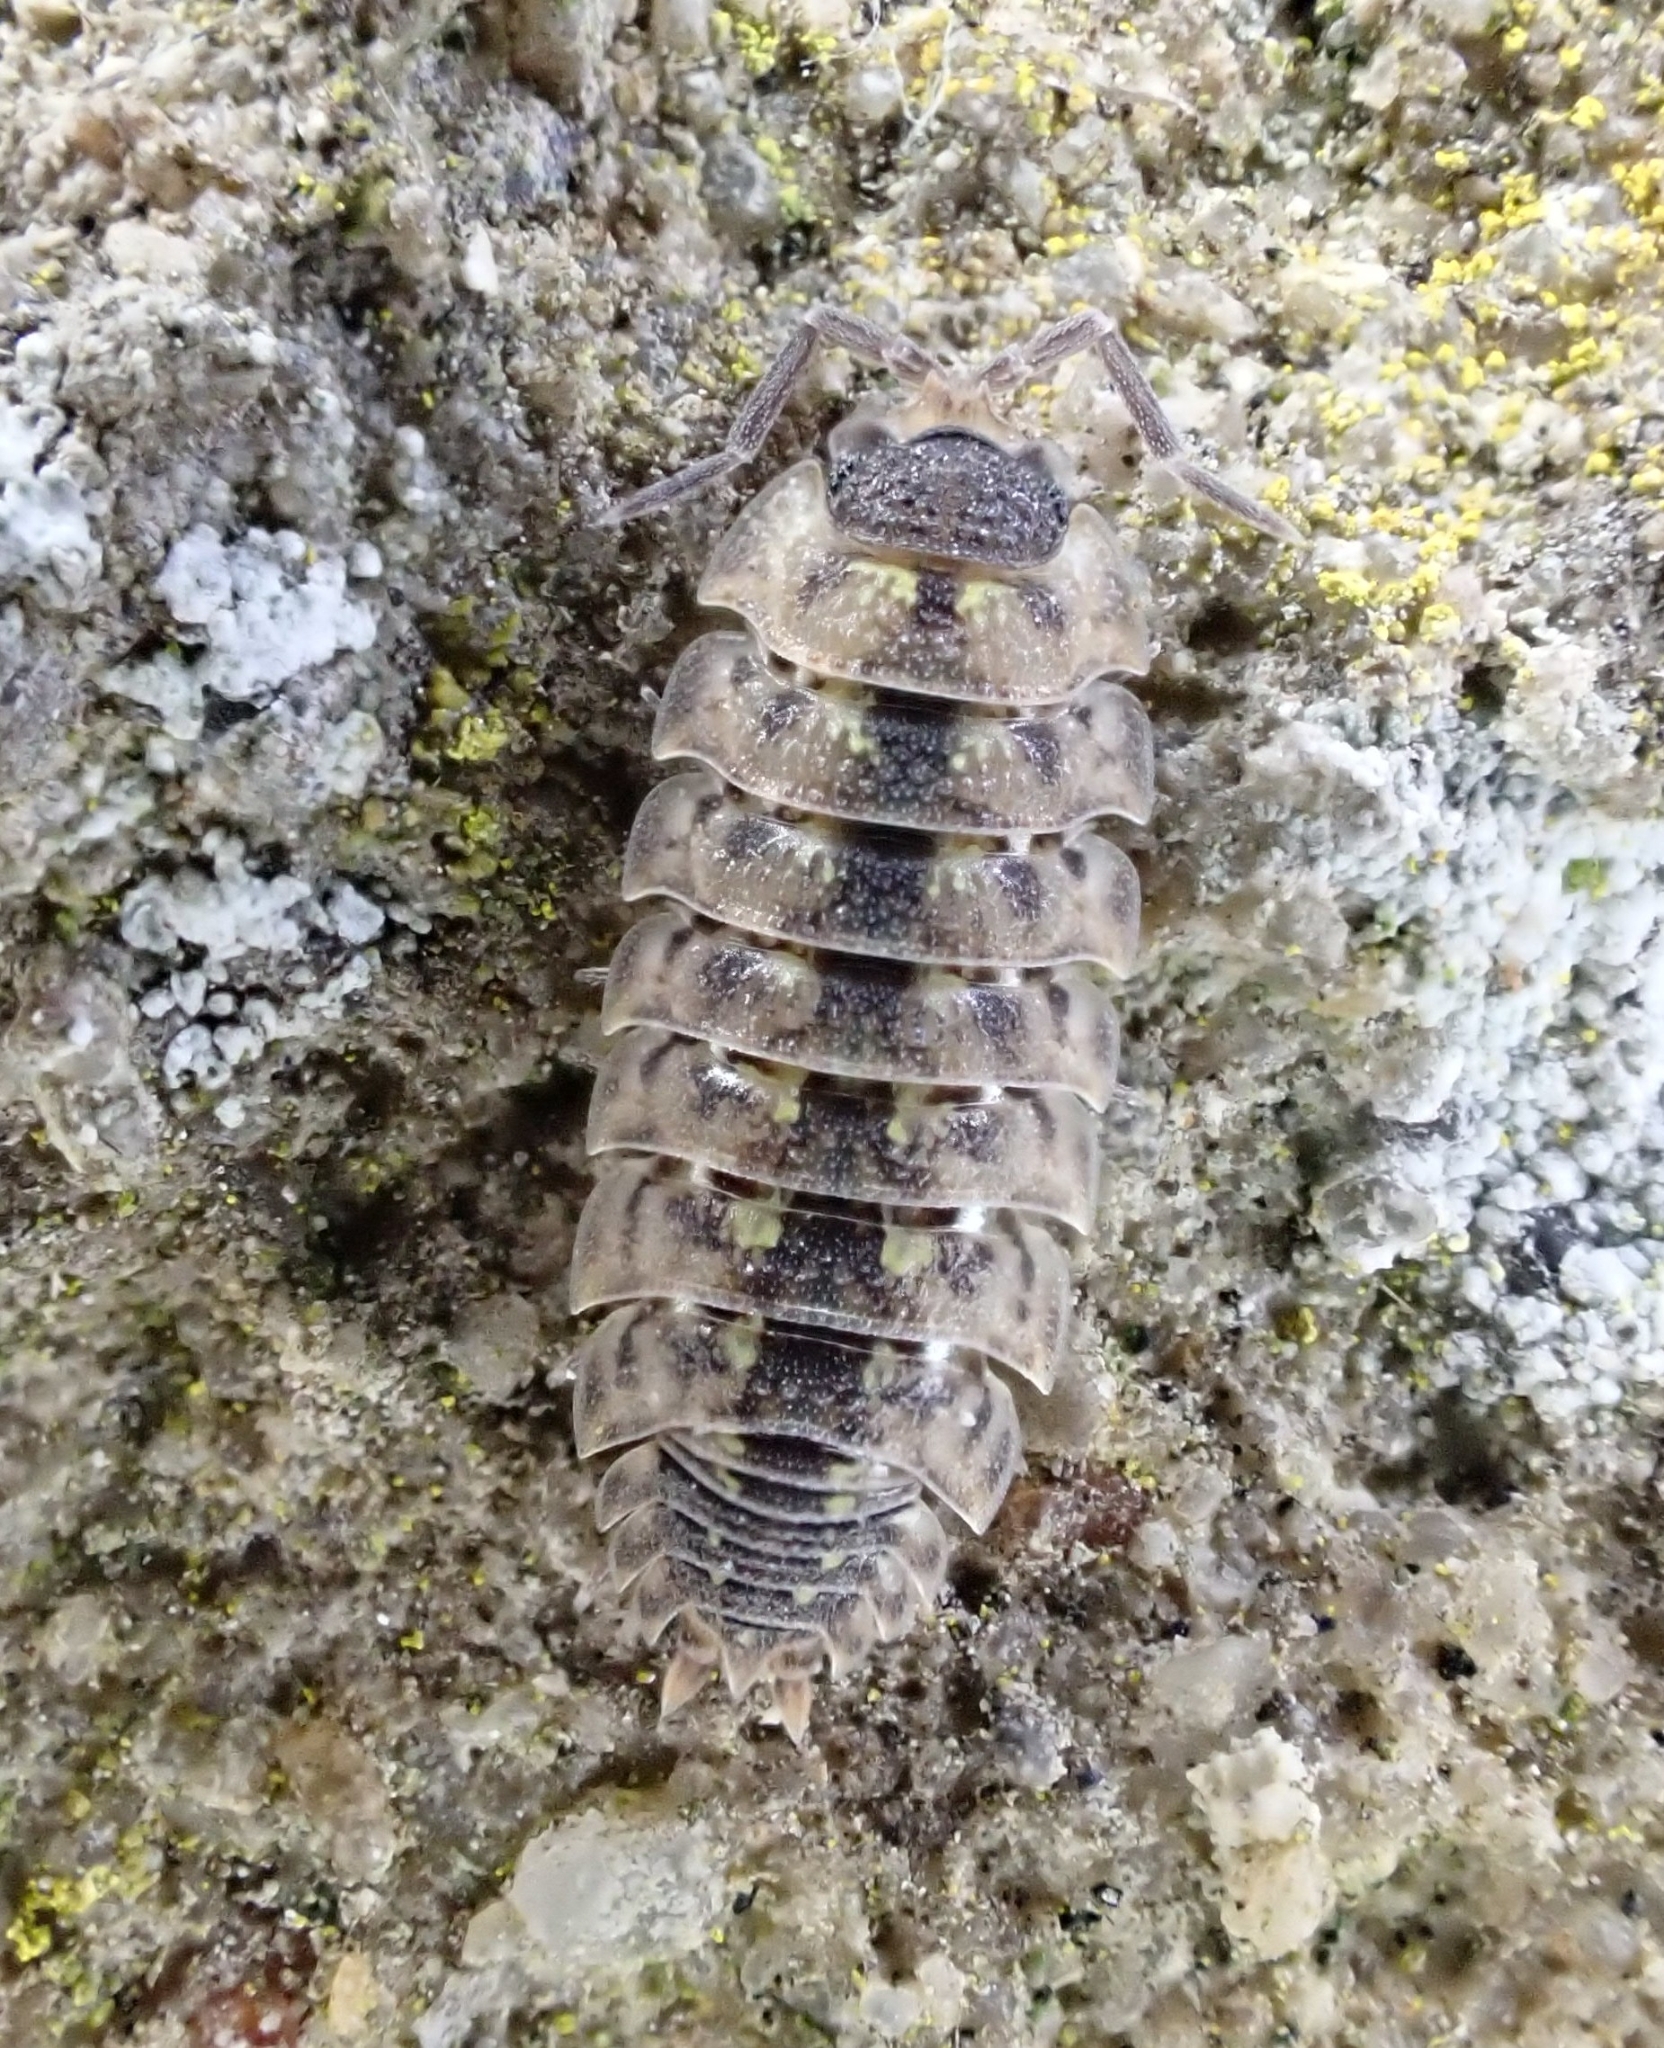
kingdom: Animalia
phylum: Arthropoda
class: Malacostraca
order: Isopoda
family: Porcellionidae
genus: Porcellio
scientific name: Porcellio spinicornis
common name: Painted woodlouse
